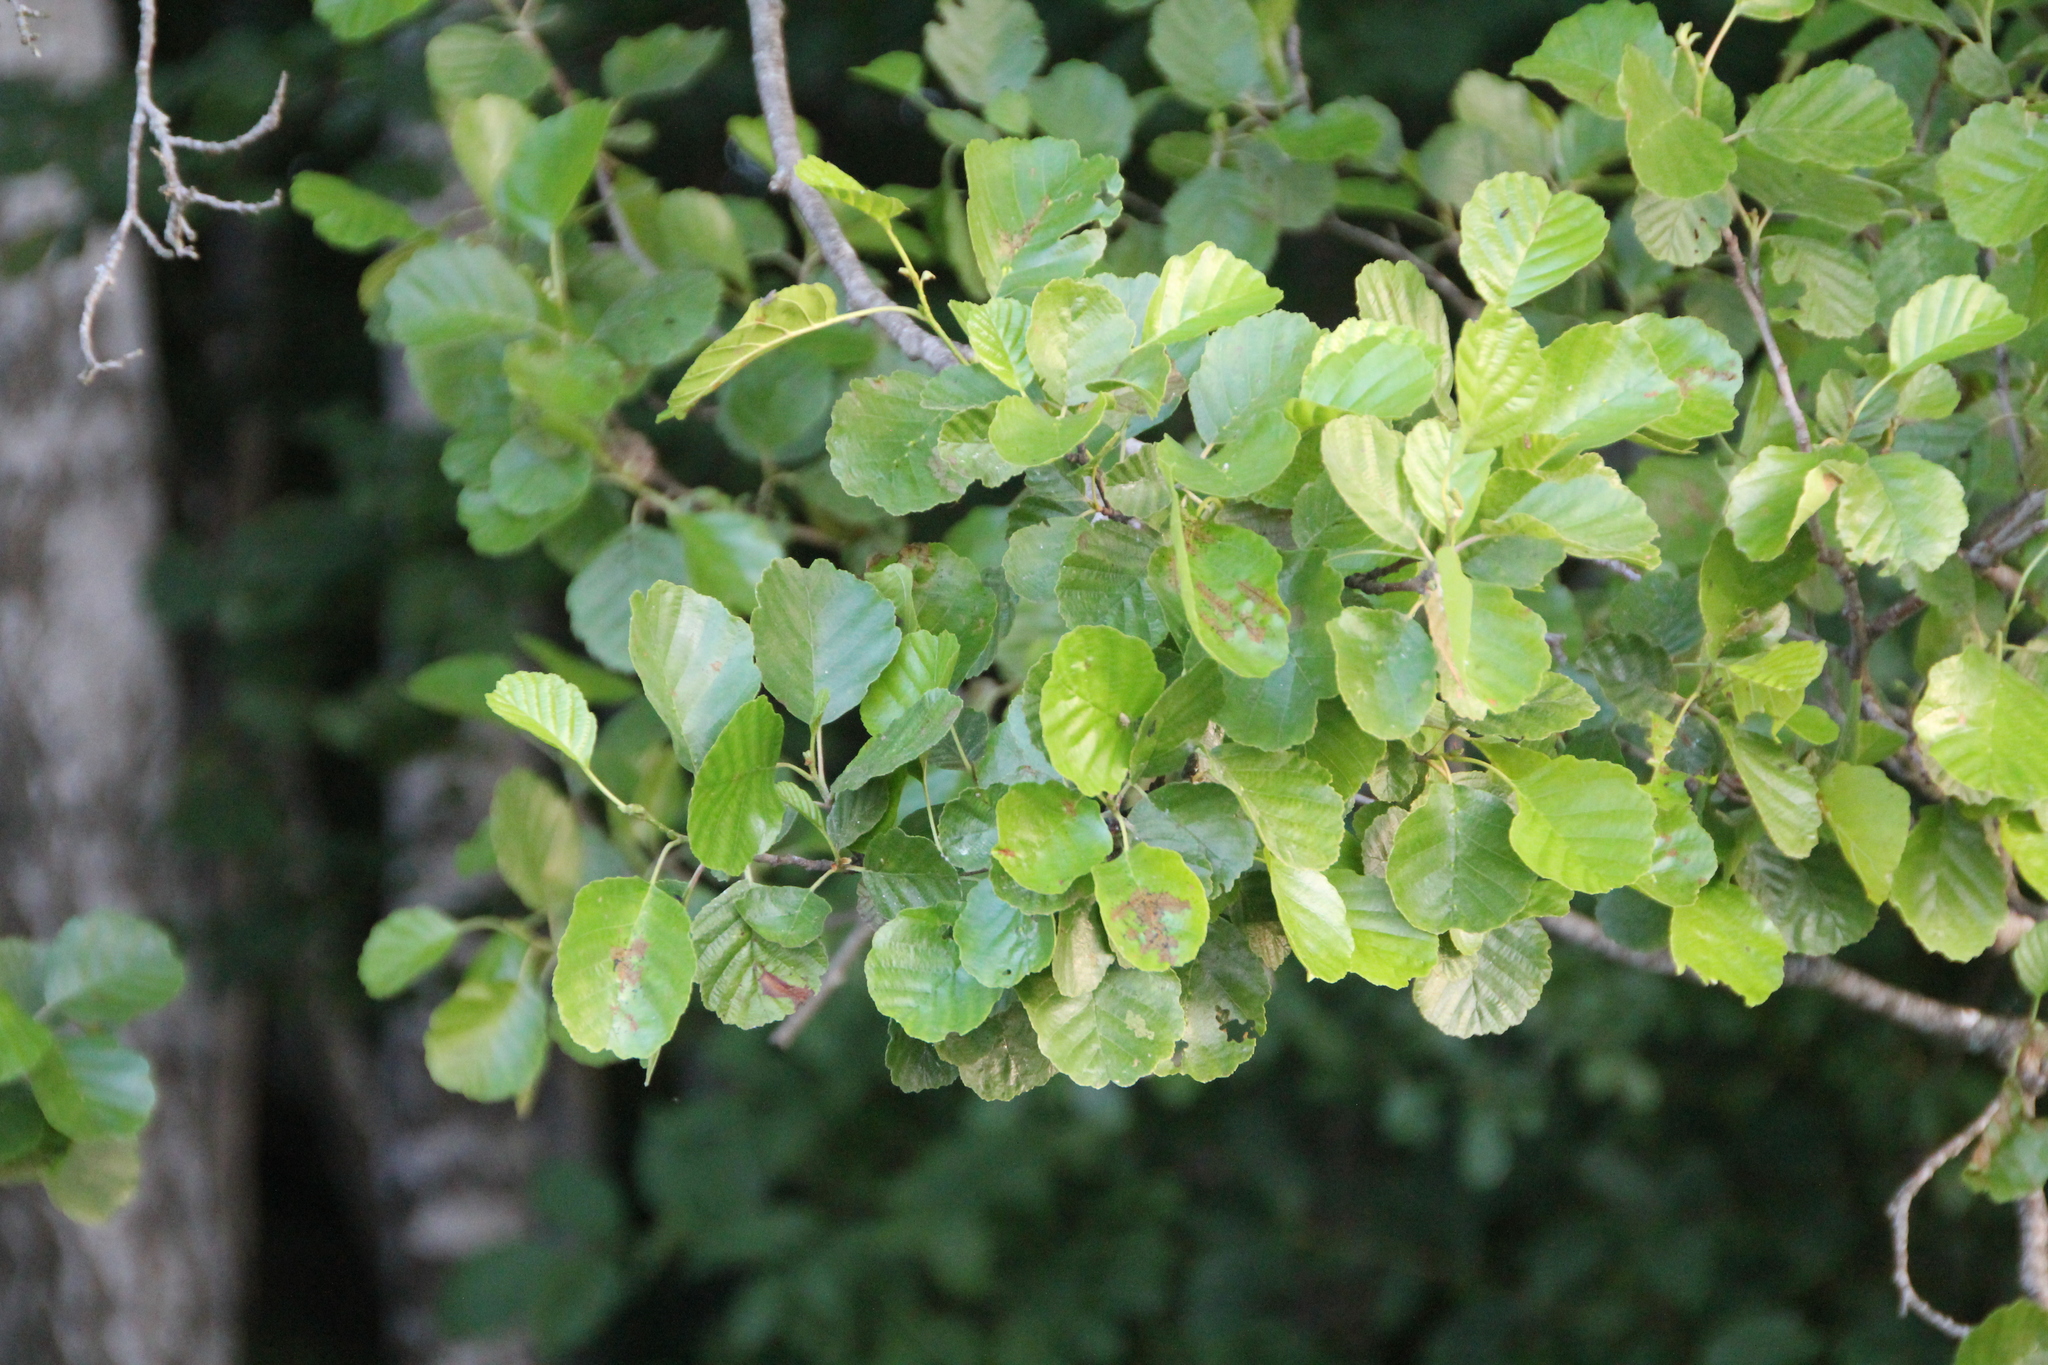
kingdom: Plantae
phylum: Tracheophyta
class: Magnoliopsida
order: Fagales
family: Betulaceae
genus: Alnus
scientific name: Alnus glutinosa
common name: Black alder
